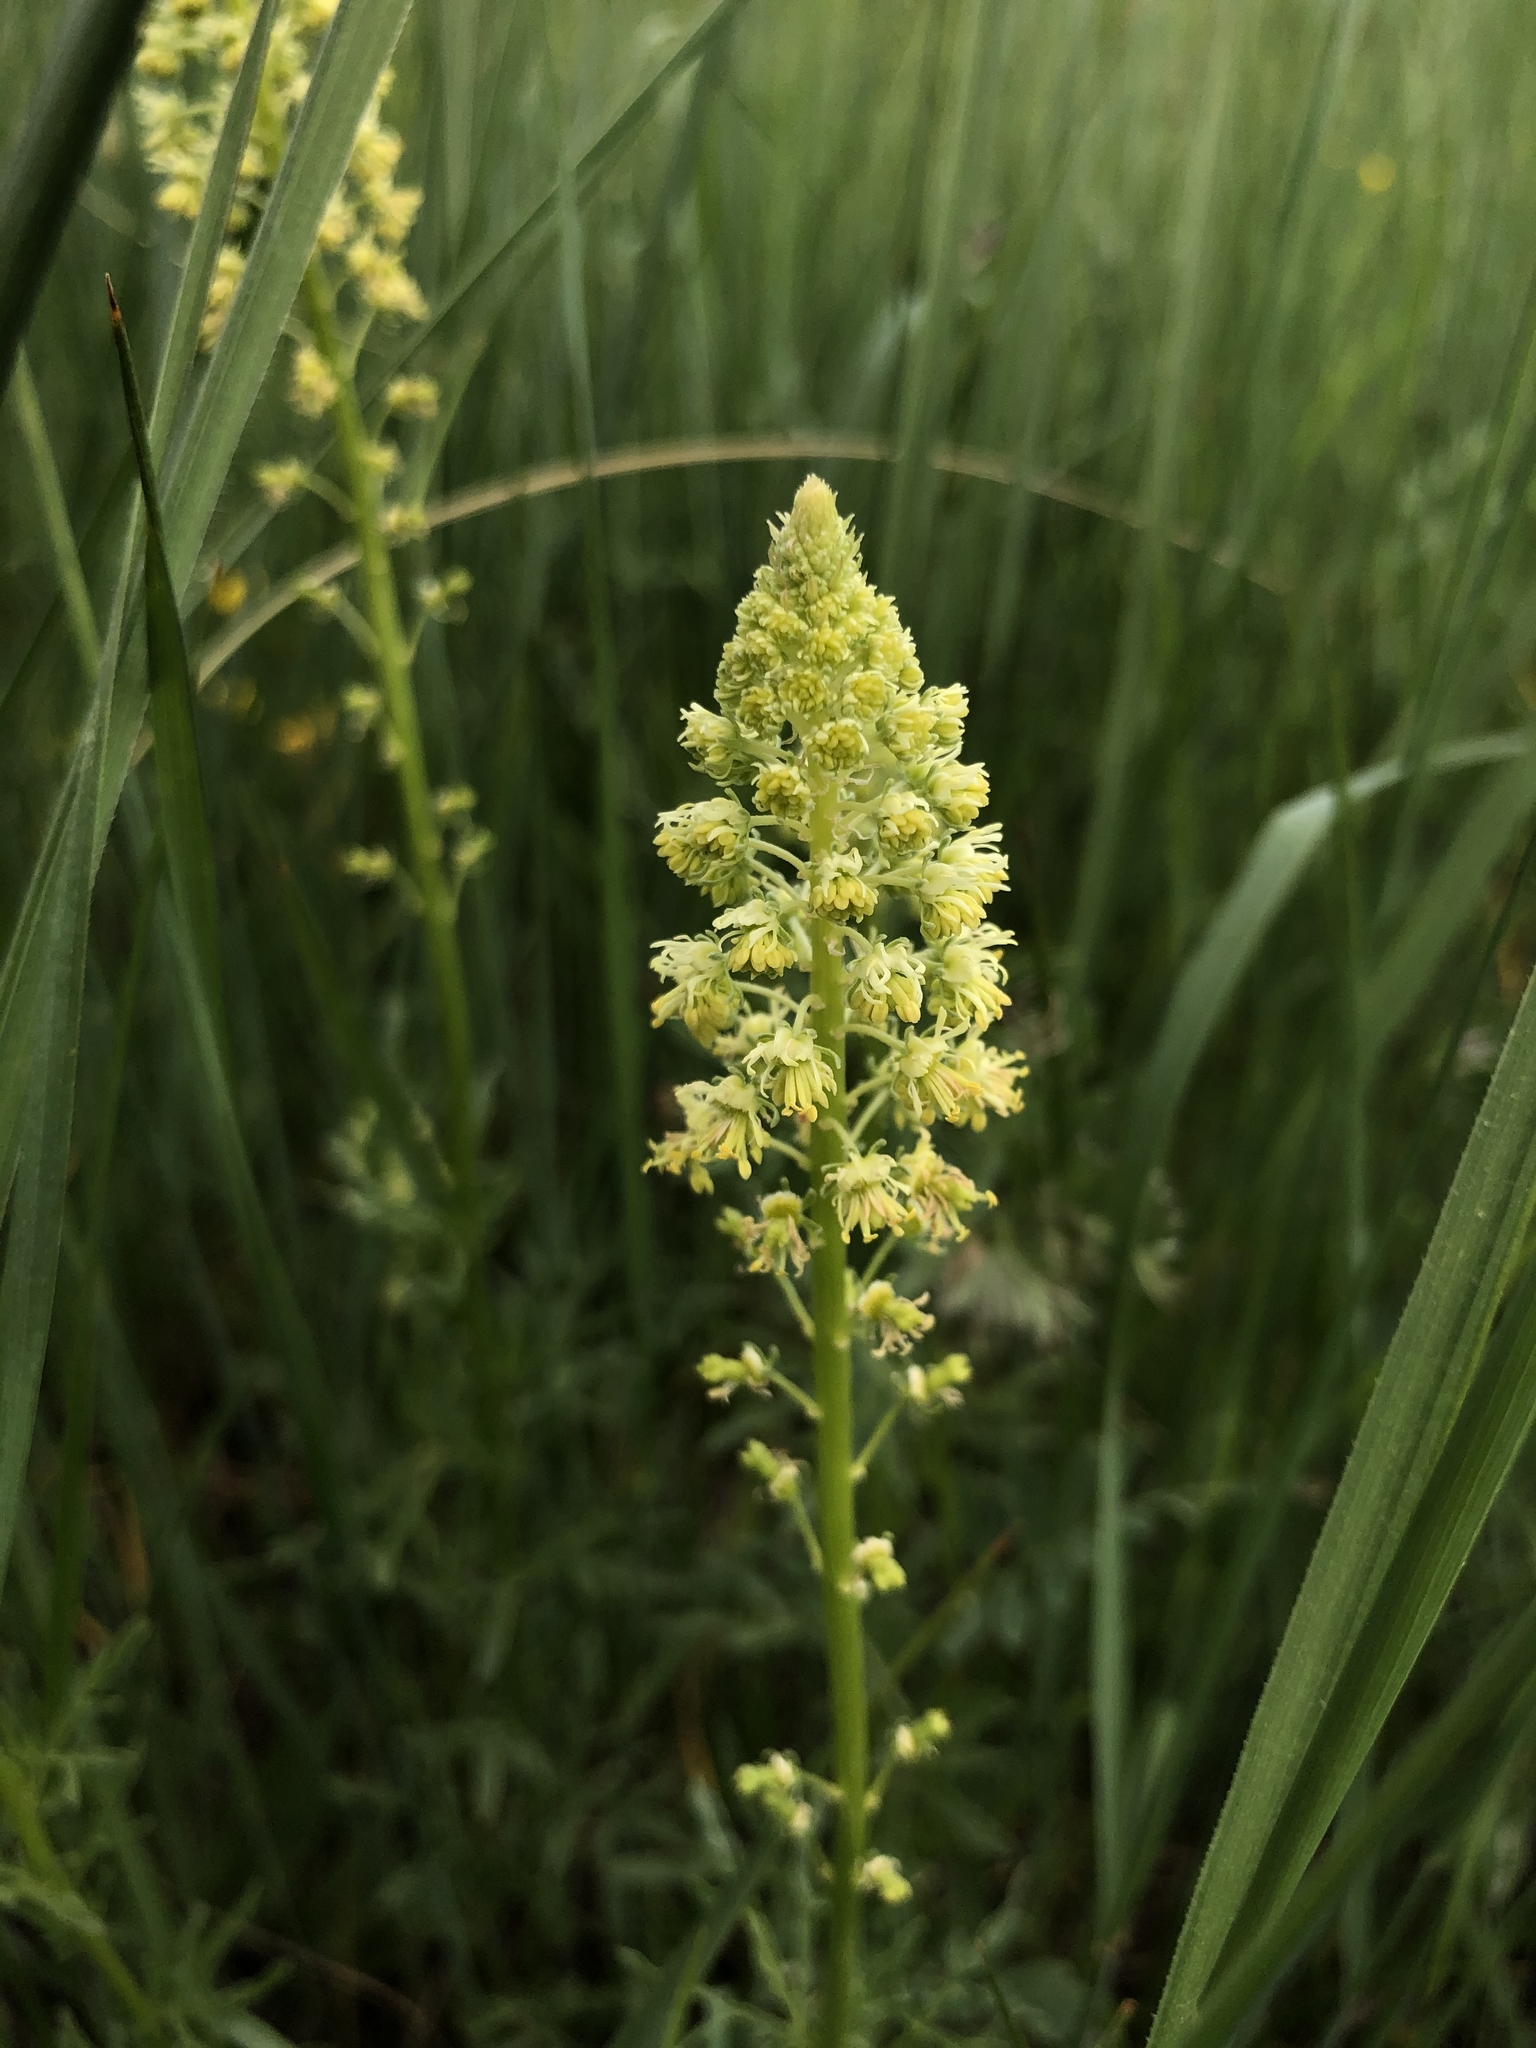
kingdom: Plantae
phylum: Tracheophyta
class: Magnoliopsida
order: Brassicales
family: Resedaceae
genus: Reseda
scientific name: Reseda lutea
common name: Wild mignonette
